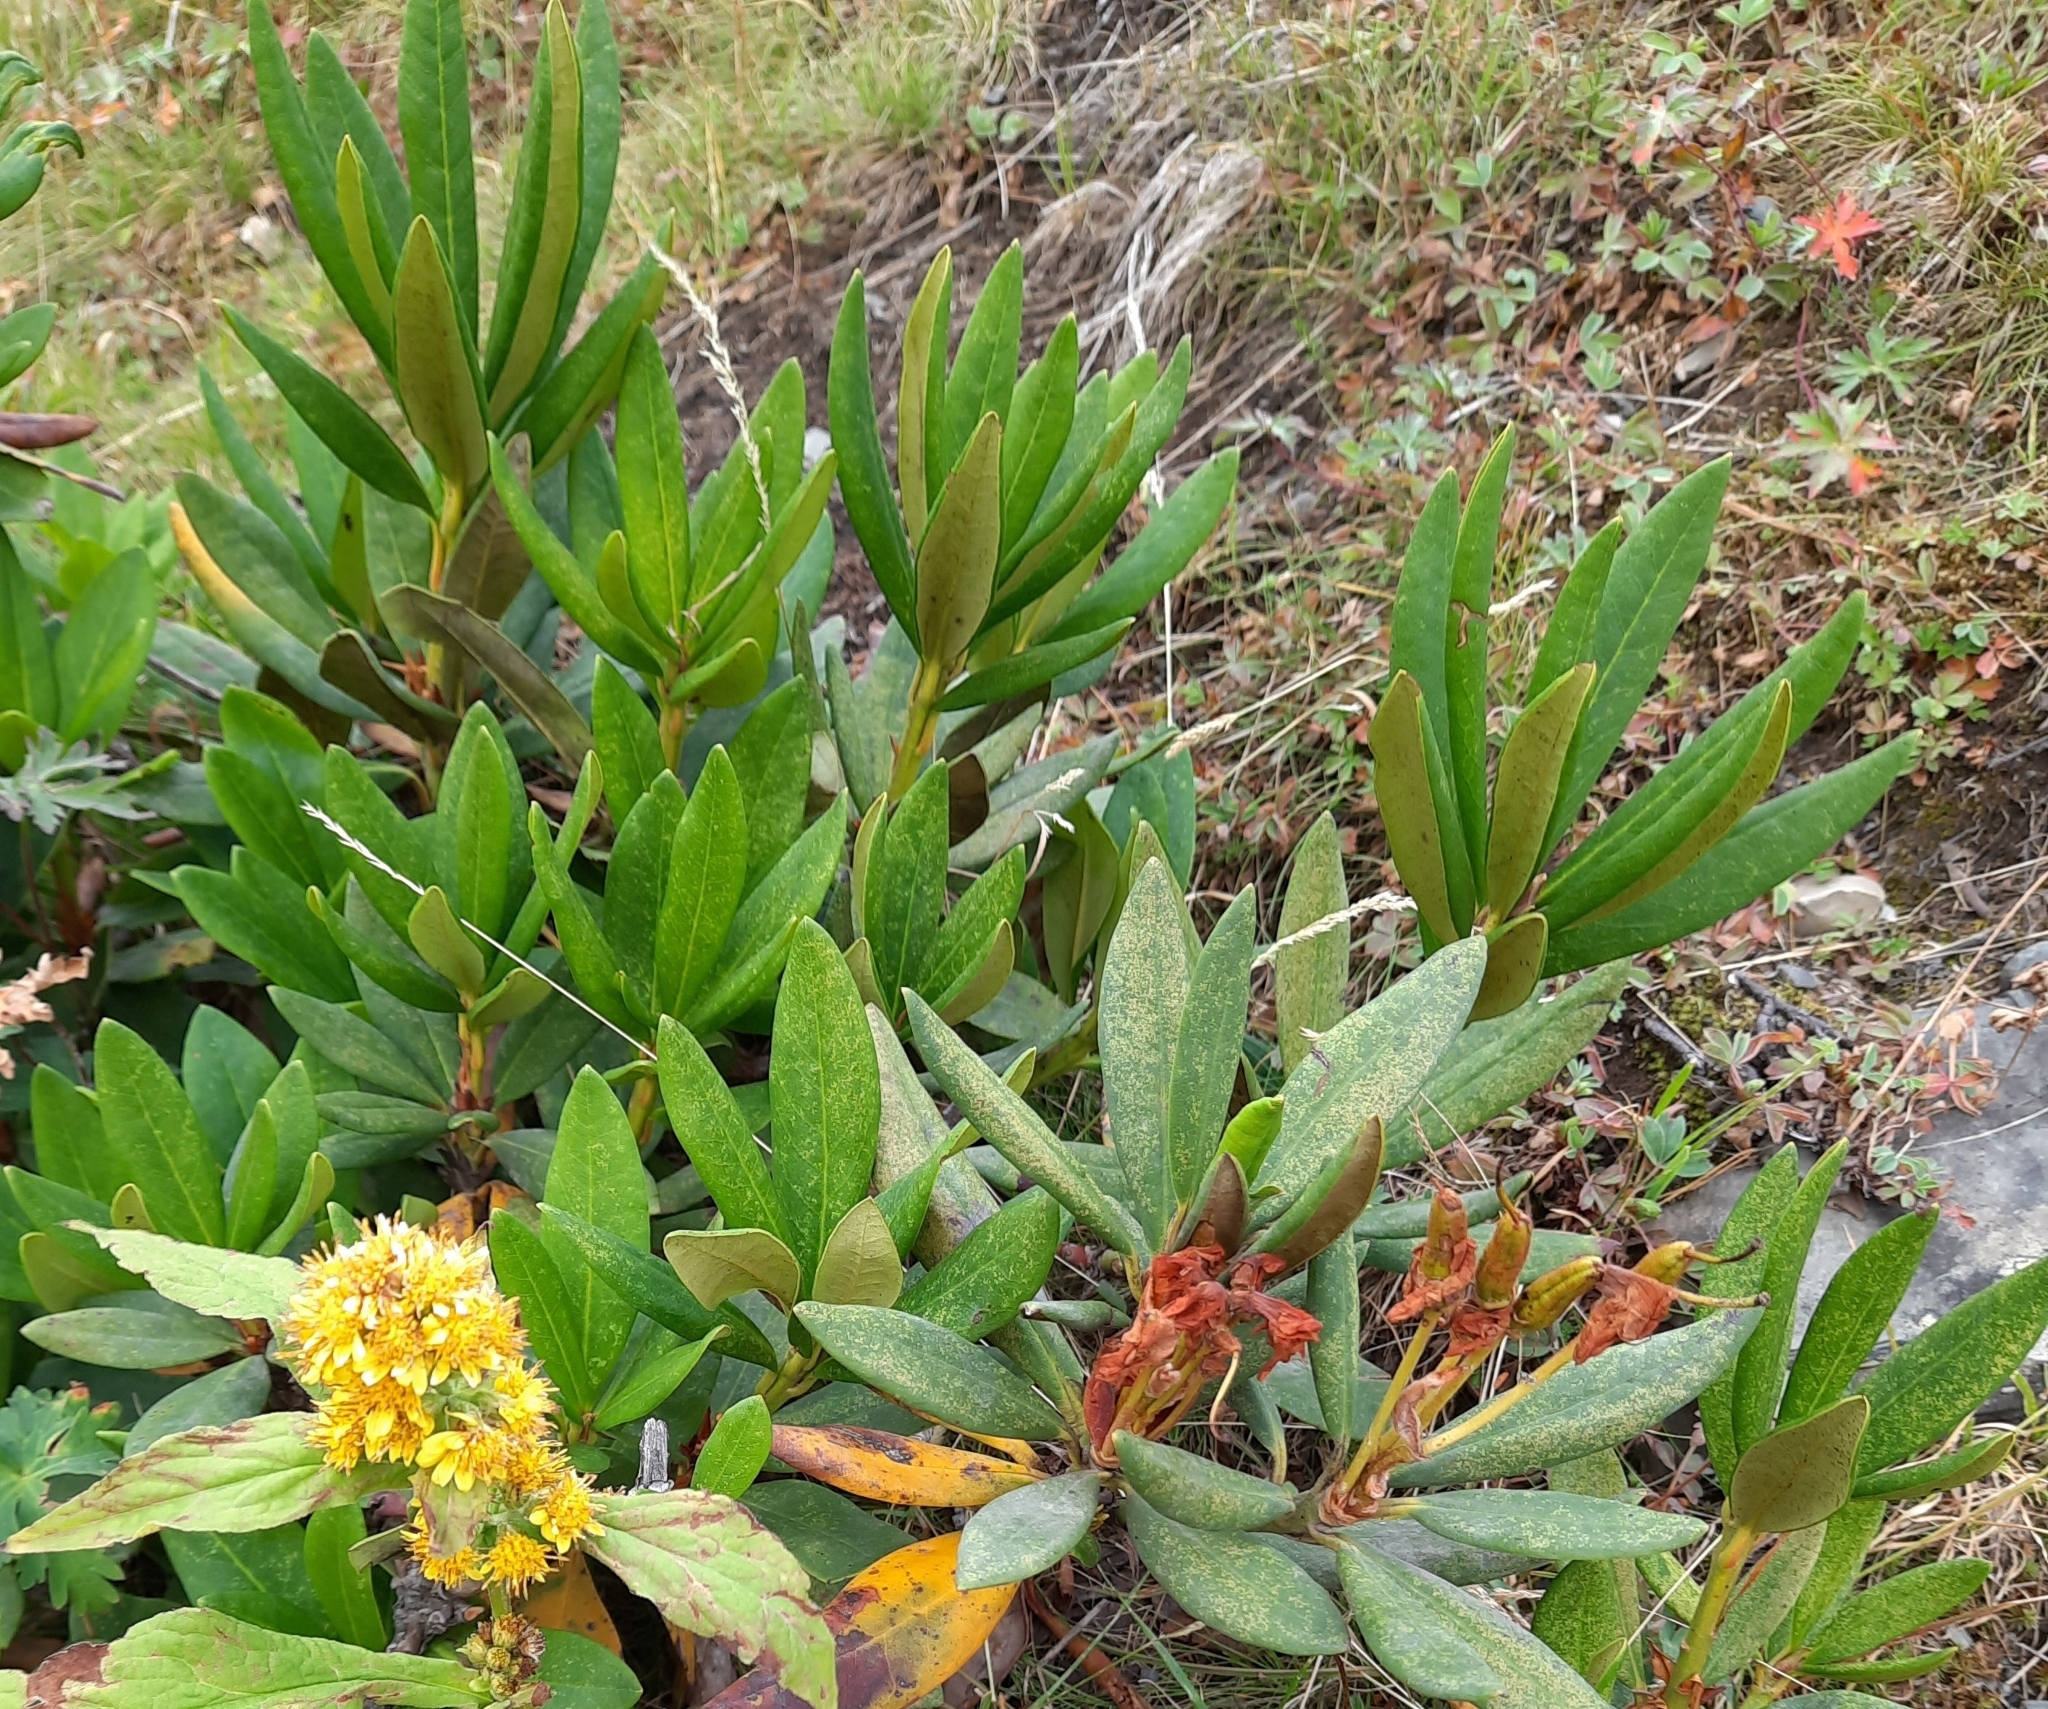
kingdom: Plantae
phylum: Tracheophyta
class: Magnoliopsida
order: Ericales
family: Ericaceae
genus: Rhododendron
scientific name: Rhododendron caucasicum
